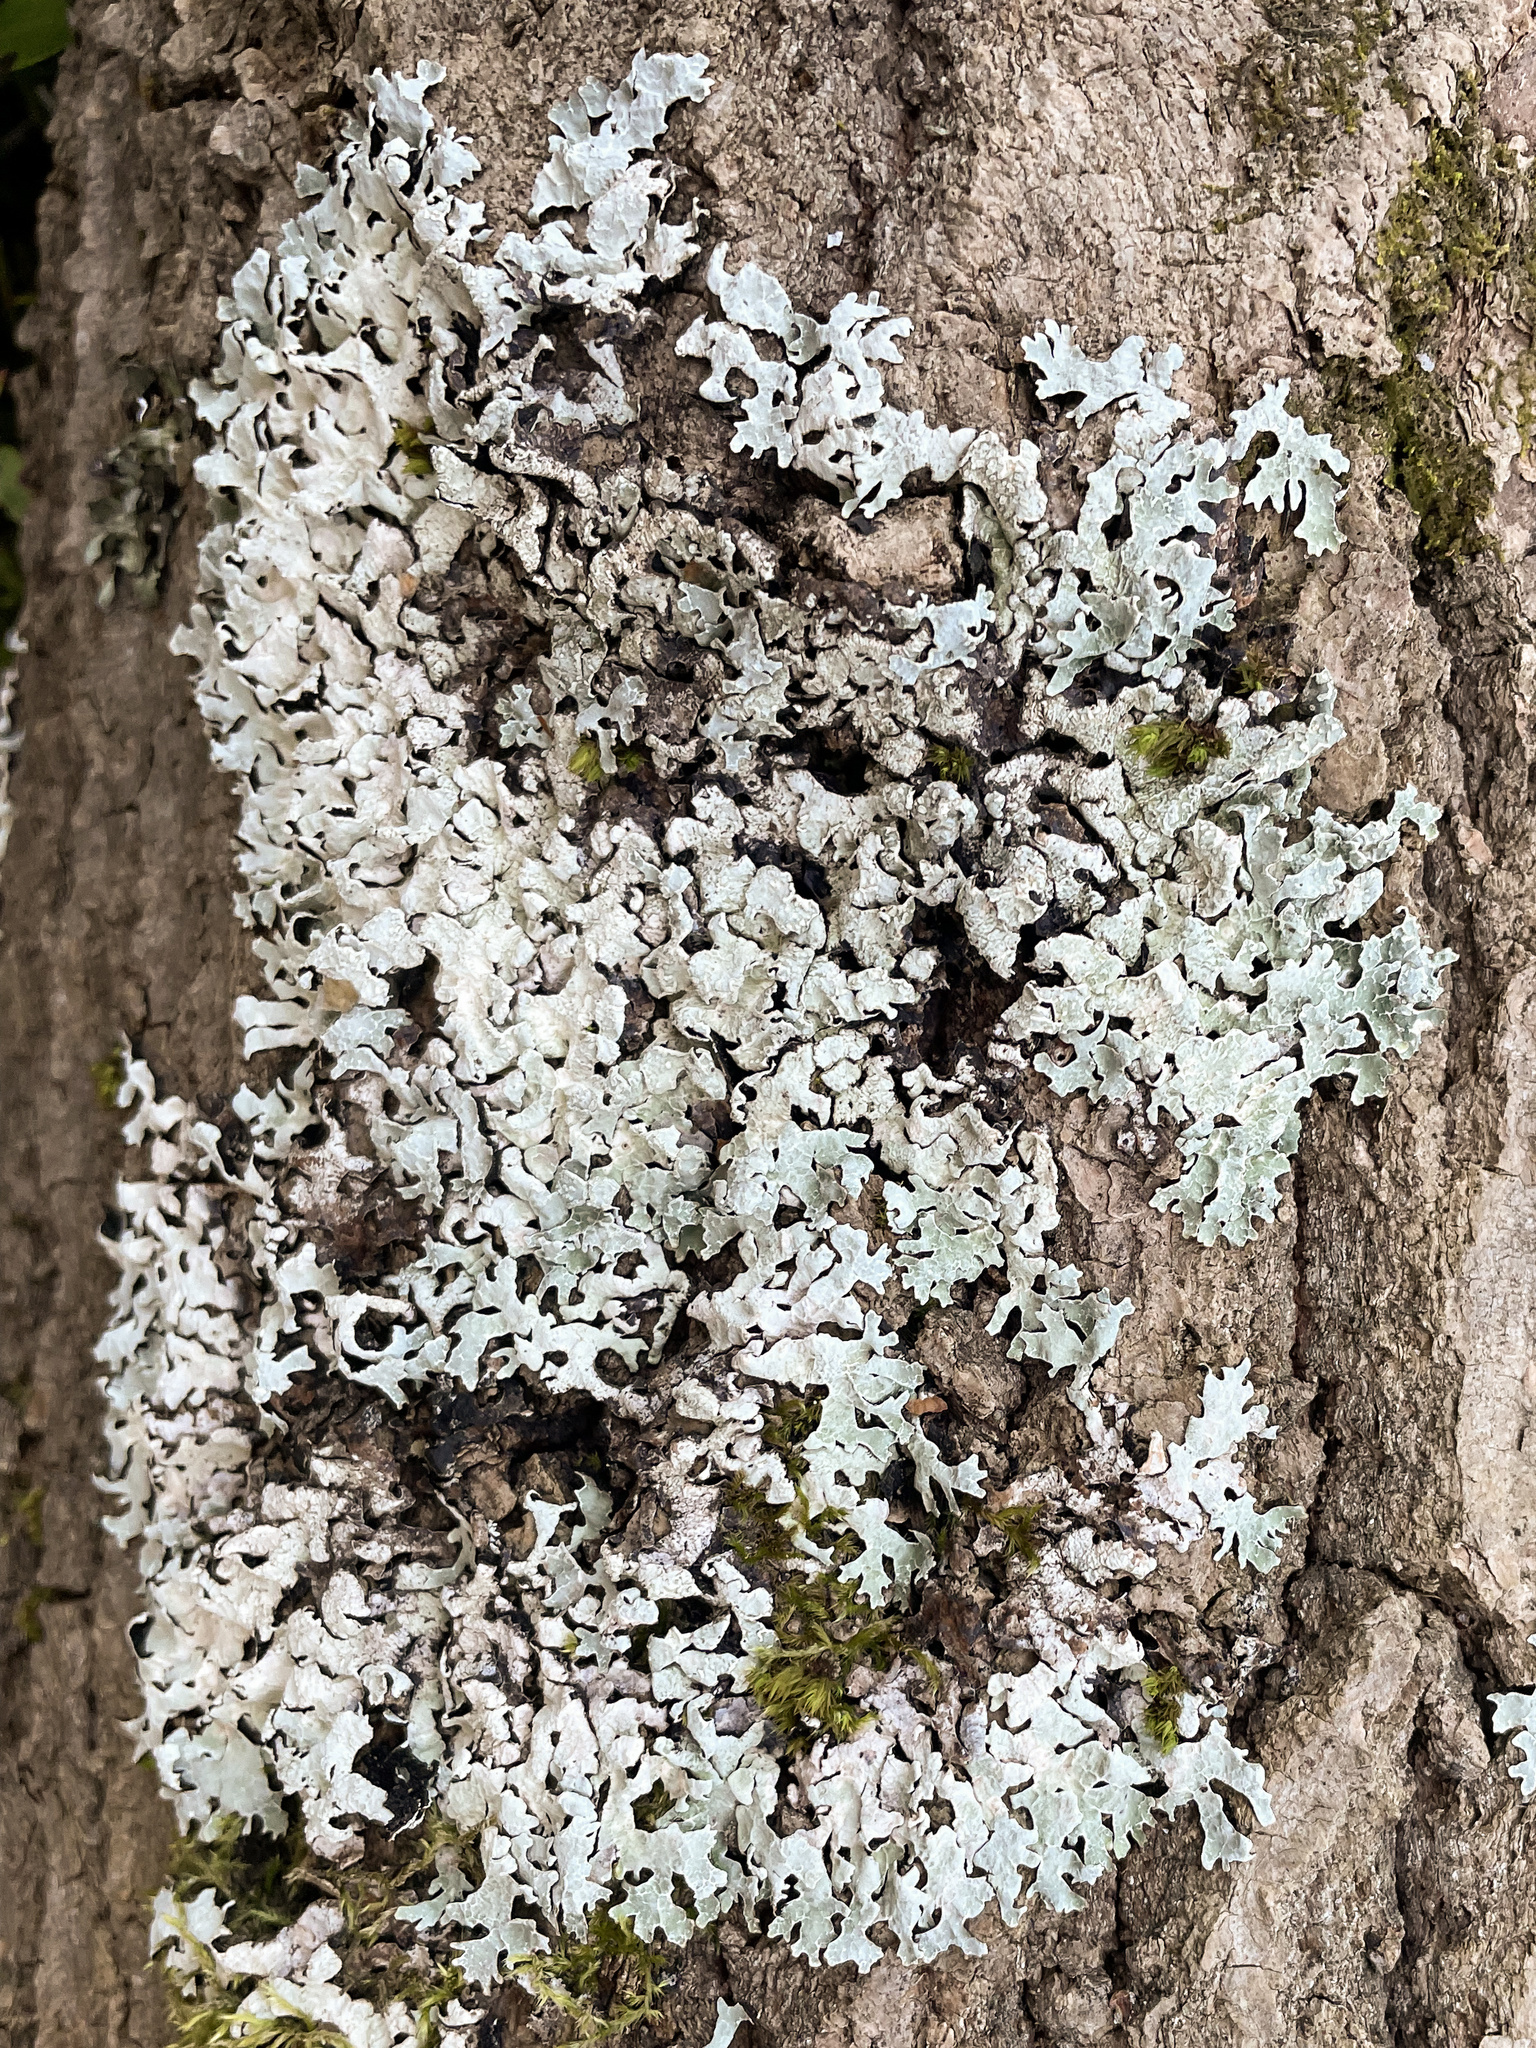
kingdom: Fungi
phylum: Ascomycota
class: Lecanoromycetes
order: Lecanorales
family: Parmeliaceae
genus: Parmelia
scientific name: Parmelia sulcata
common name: Netted shield lichen
